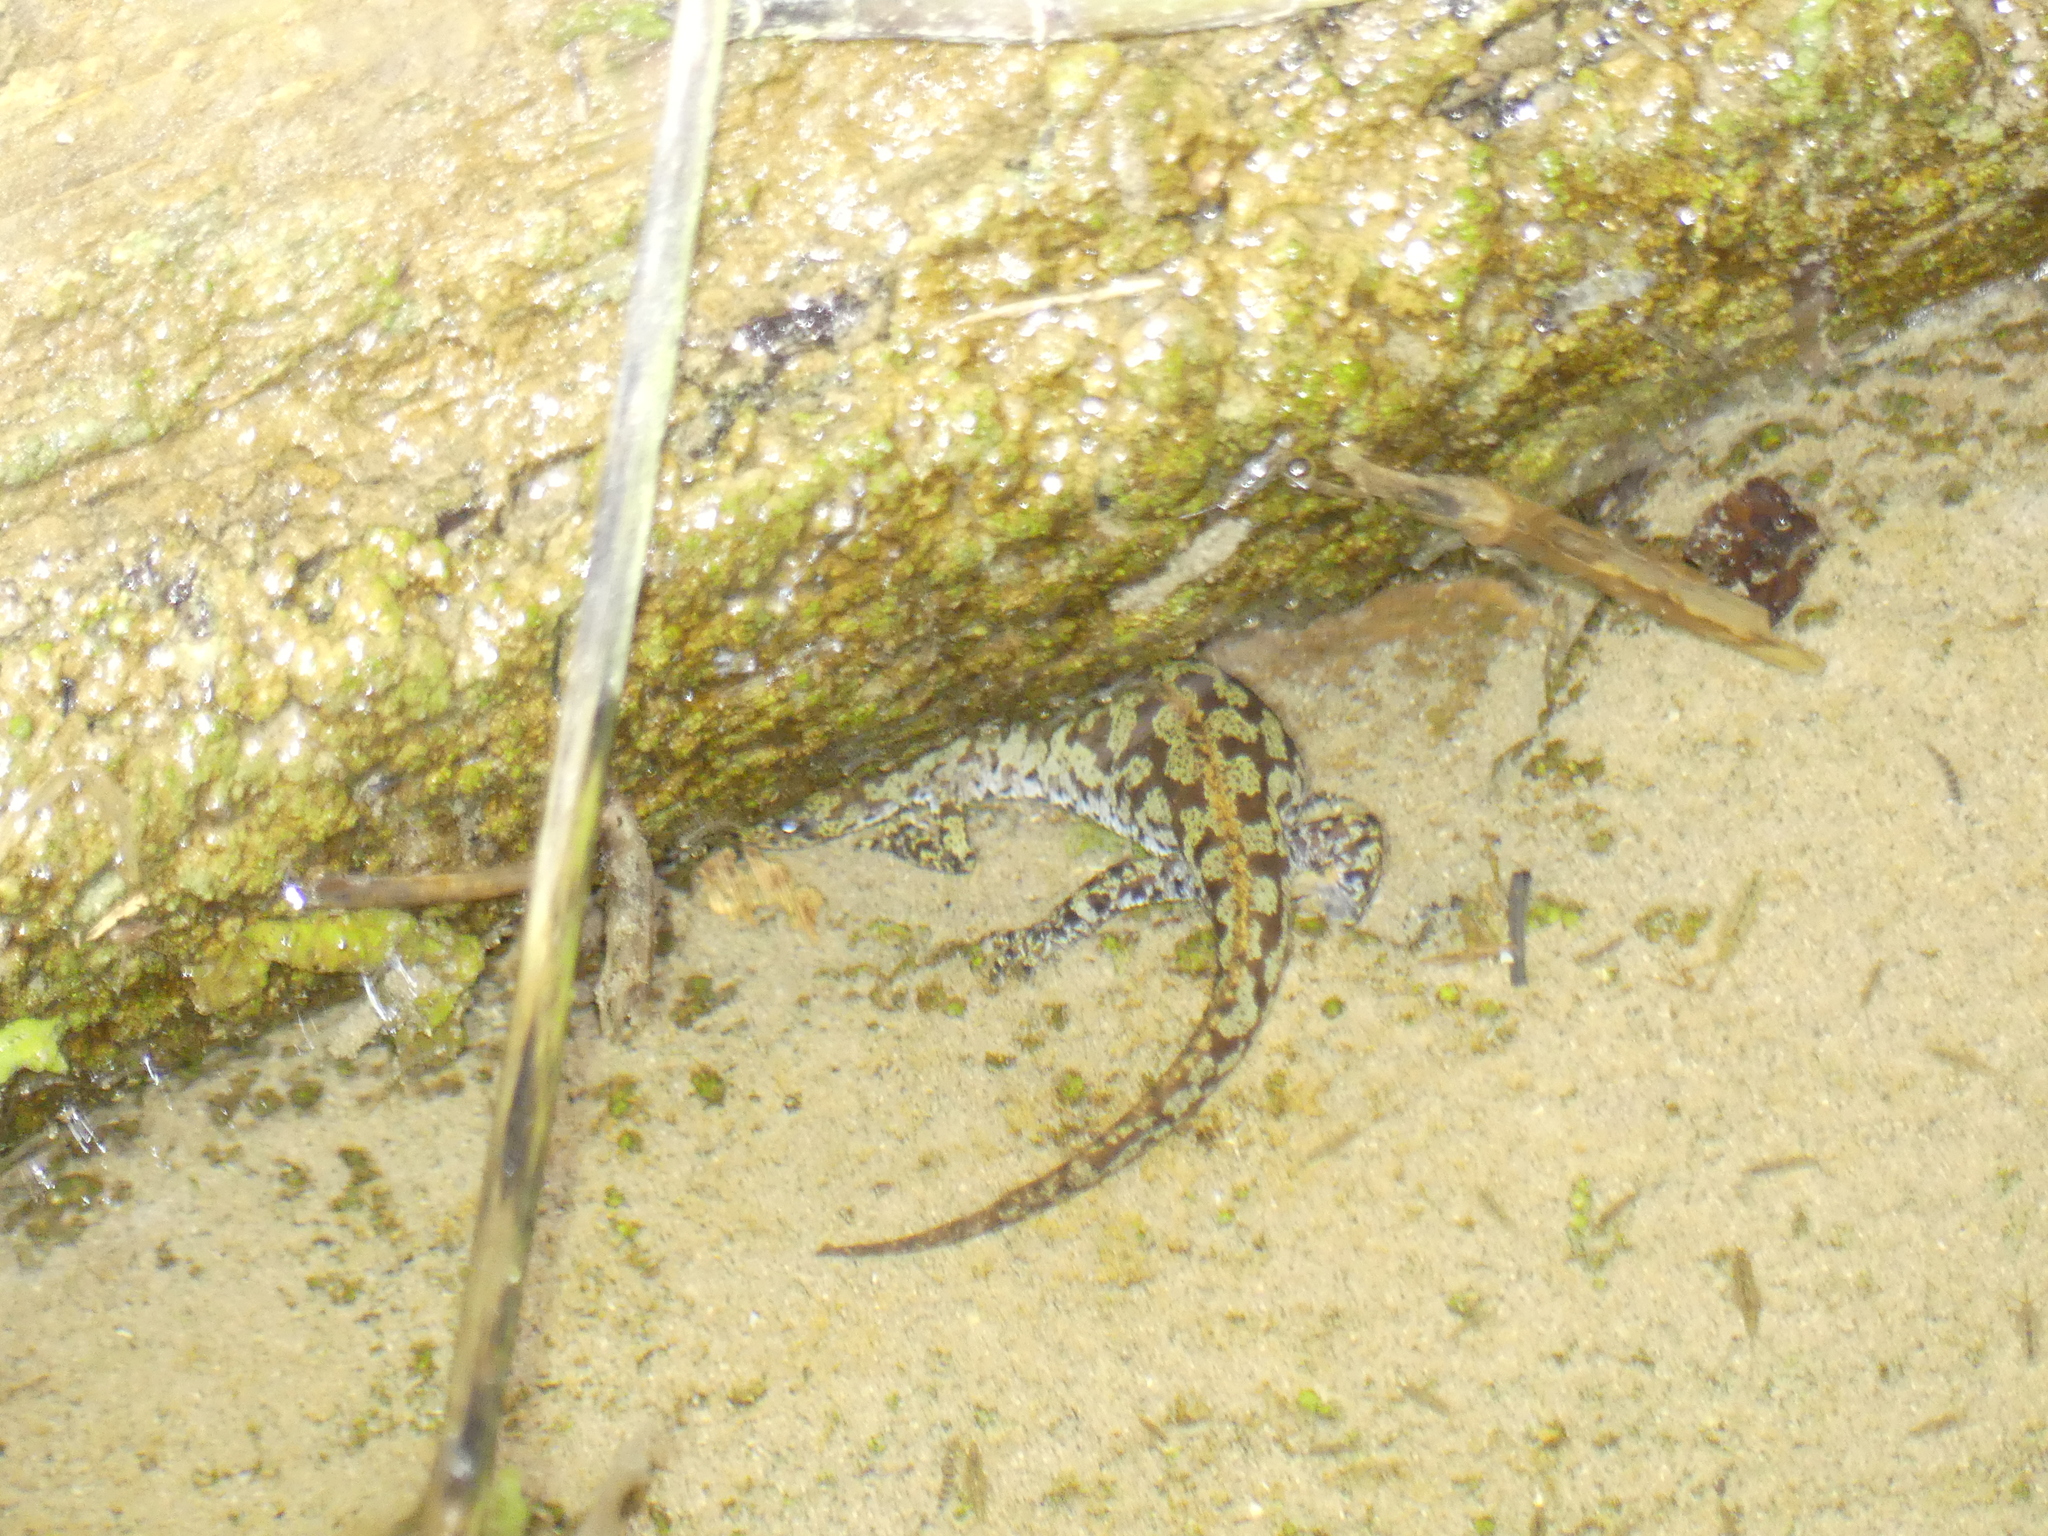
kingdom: Animalia
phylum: Chordata
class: Amphibia
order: Caudata
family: Salamandridae
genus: Ichthyosaura
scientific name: Ichthyosaura alpestris
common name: Alpine newt
